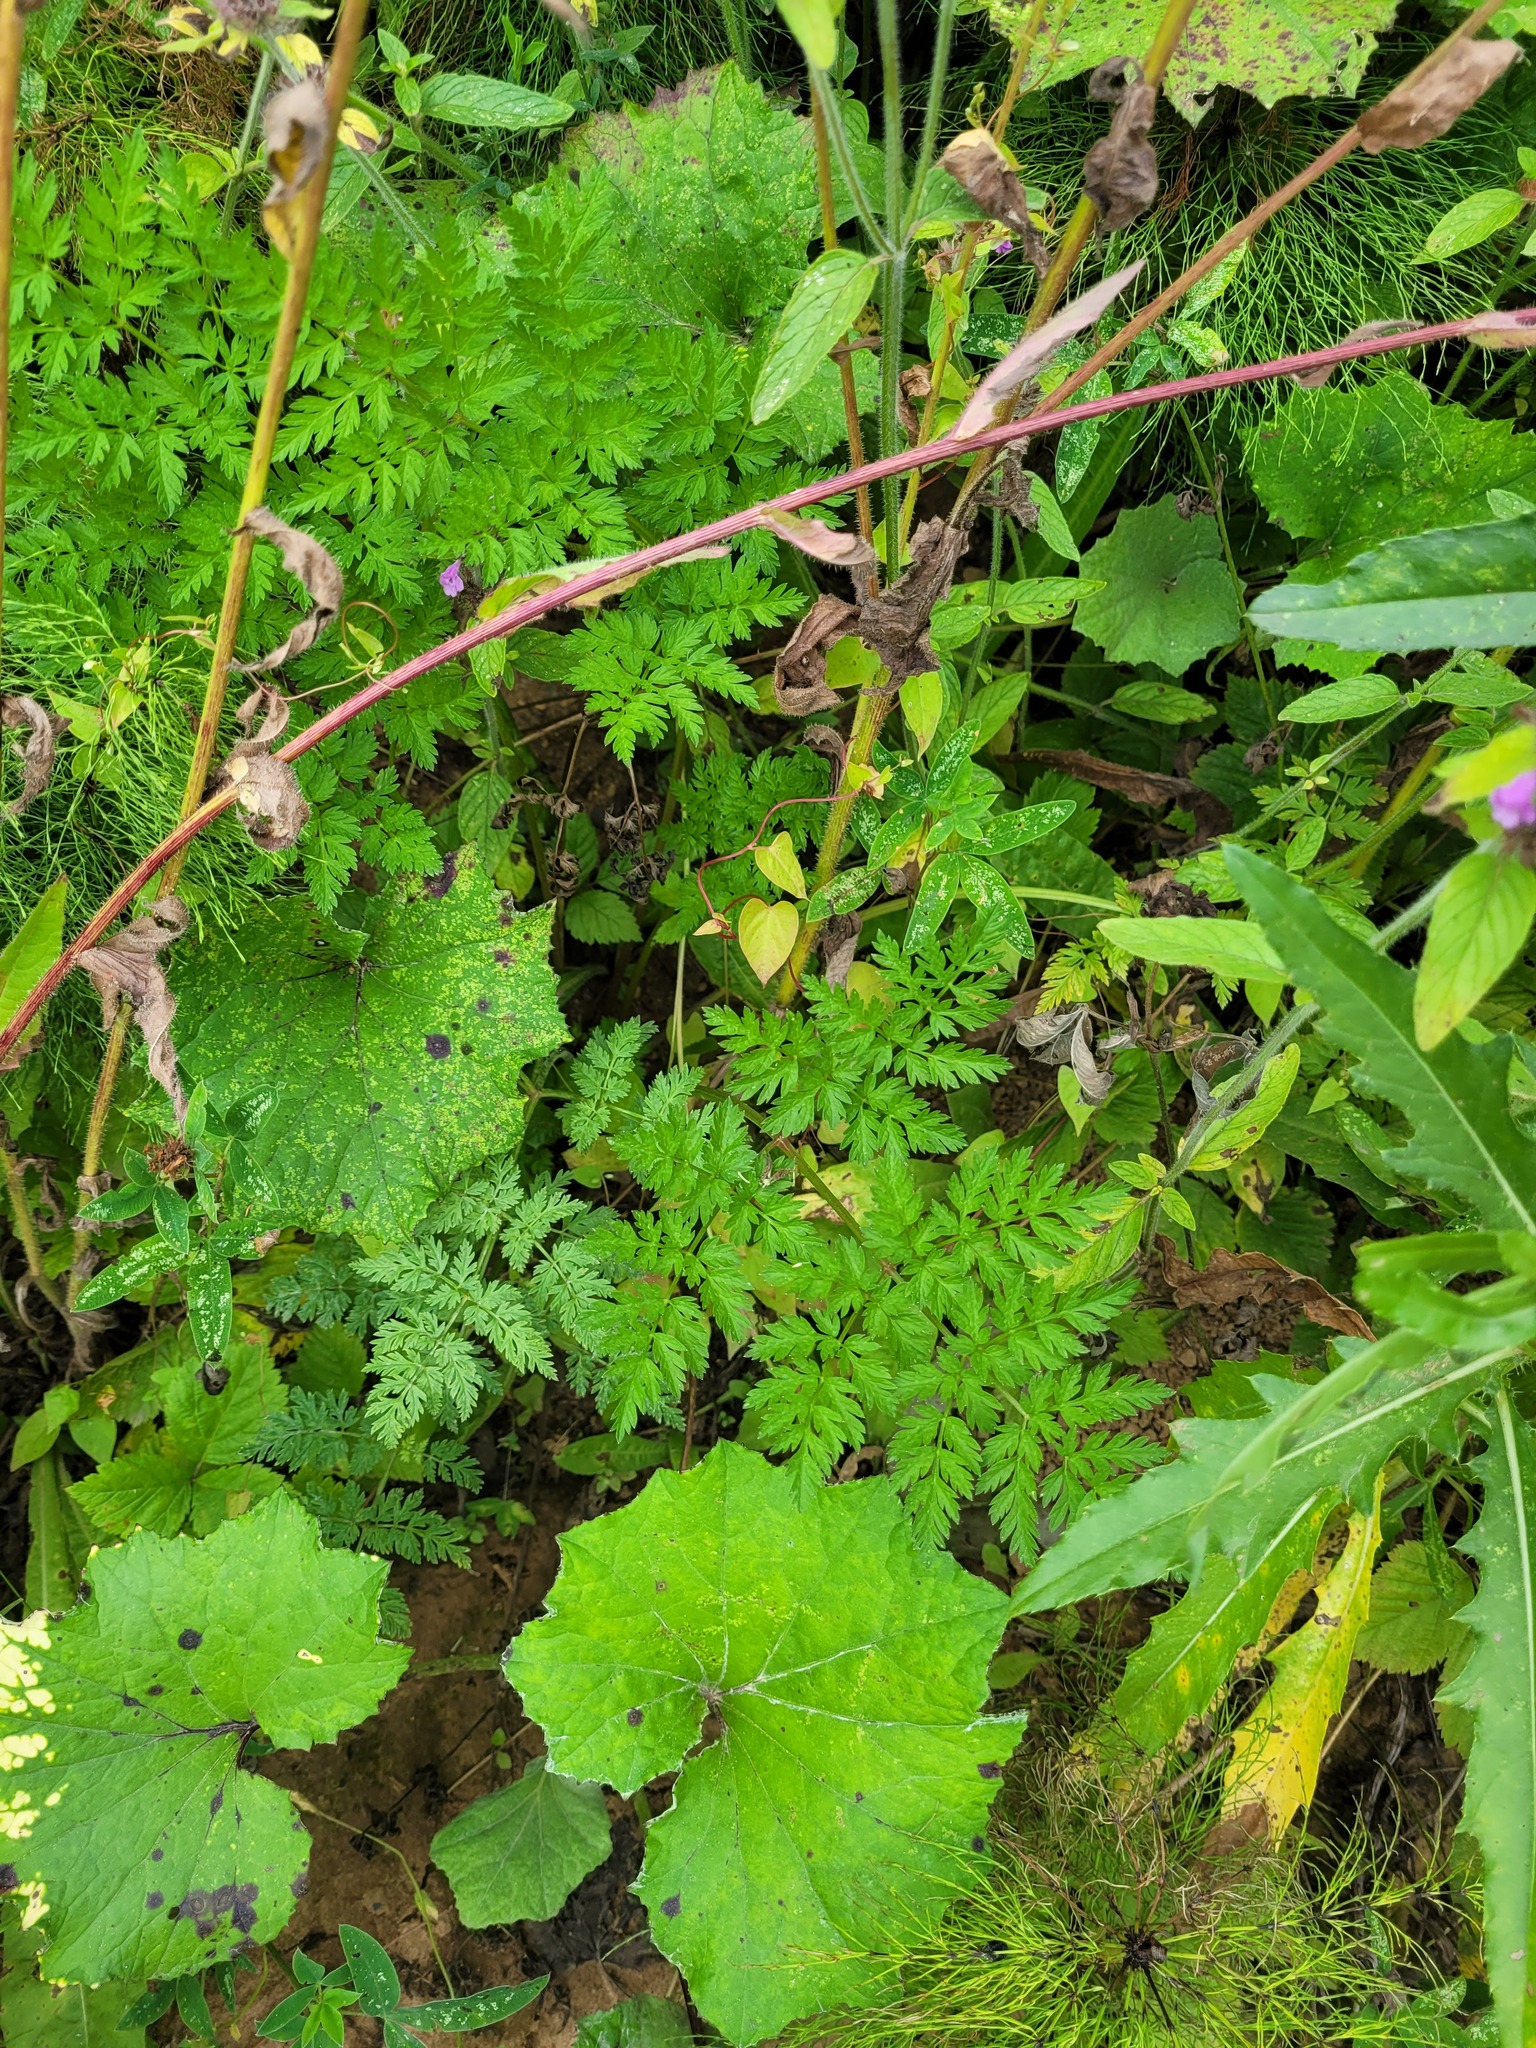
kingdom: Plantae
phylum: Tracheophyta
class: Magnoliopsida
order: Apiales
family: Apiaceae
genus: Anthriscus
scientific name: Anthriscus sylvestris
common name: Cow parsley
